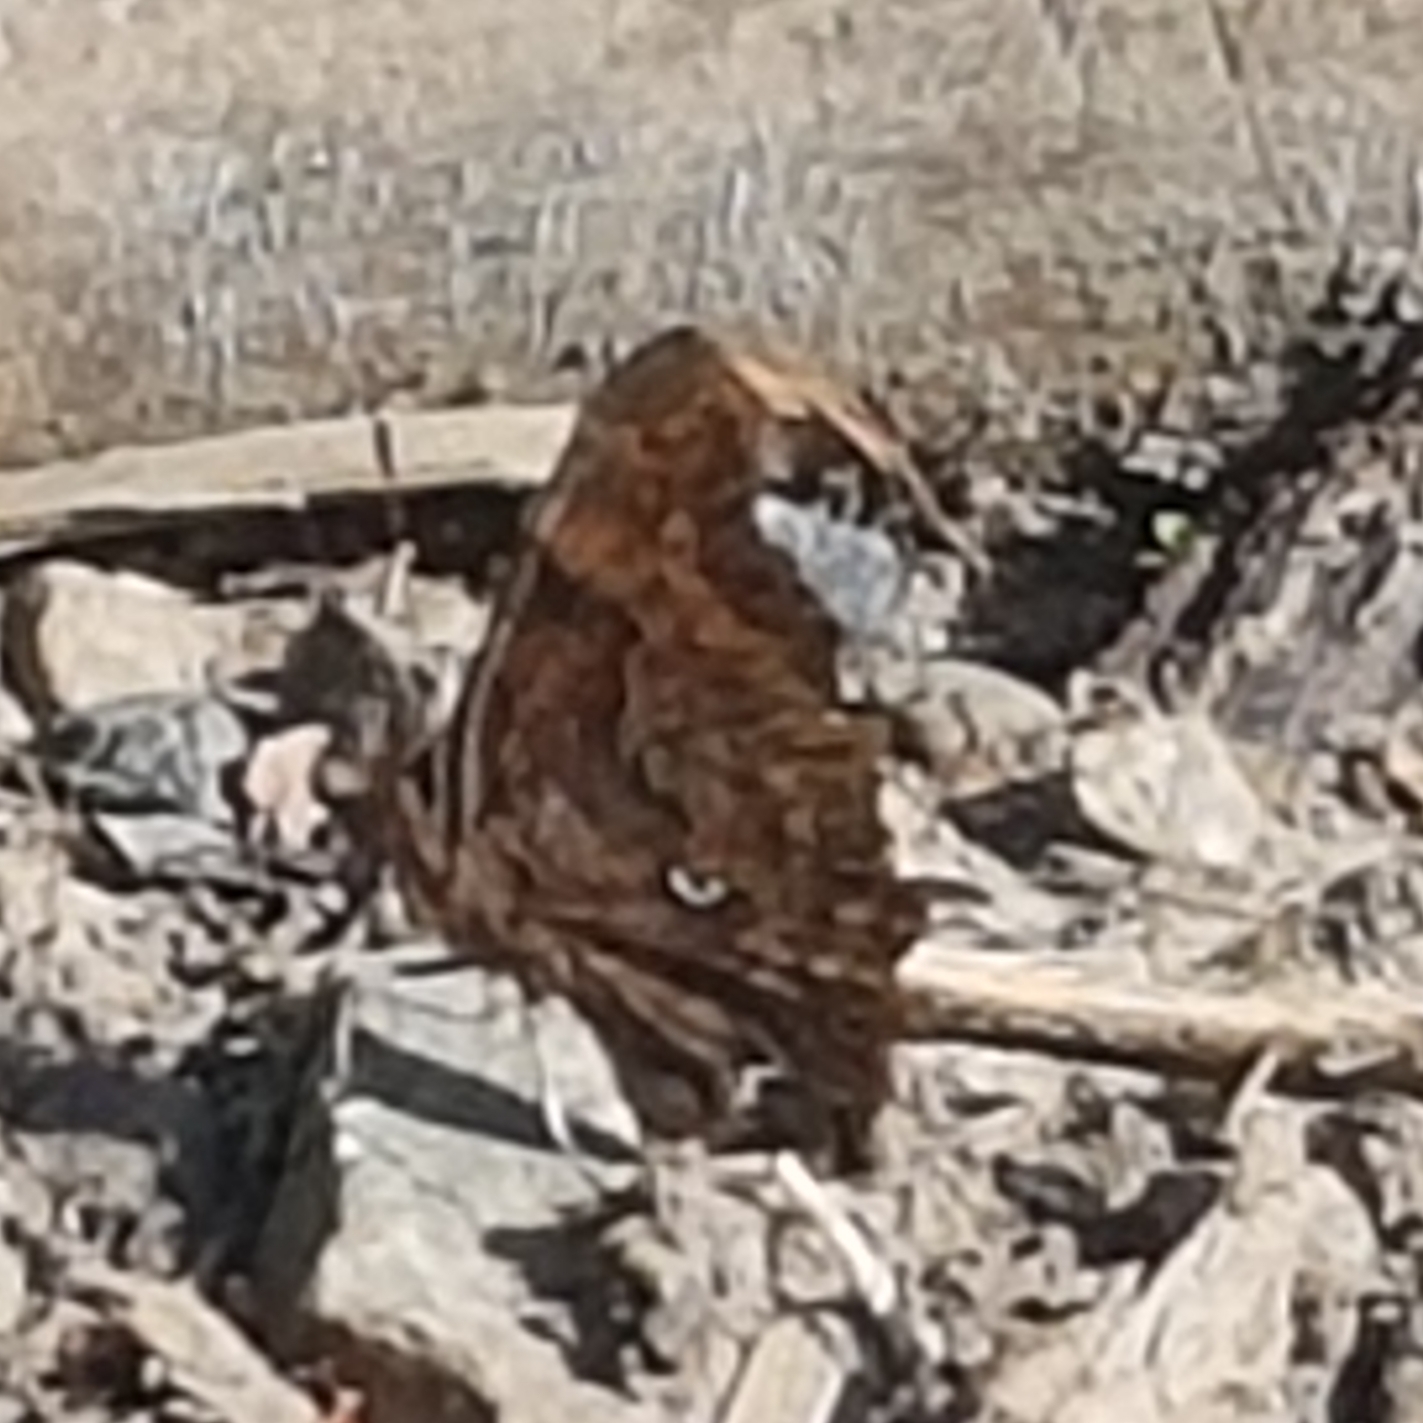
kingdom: Animalia
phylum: Arthropoda
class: Insecta
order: Lepidoptera
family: Nymphalidae
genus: Polygonia
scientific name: Polygonia c-album
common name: Comma
